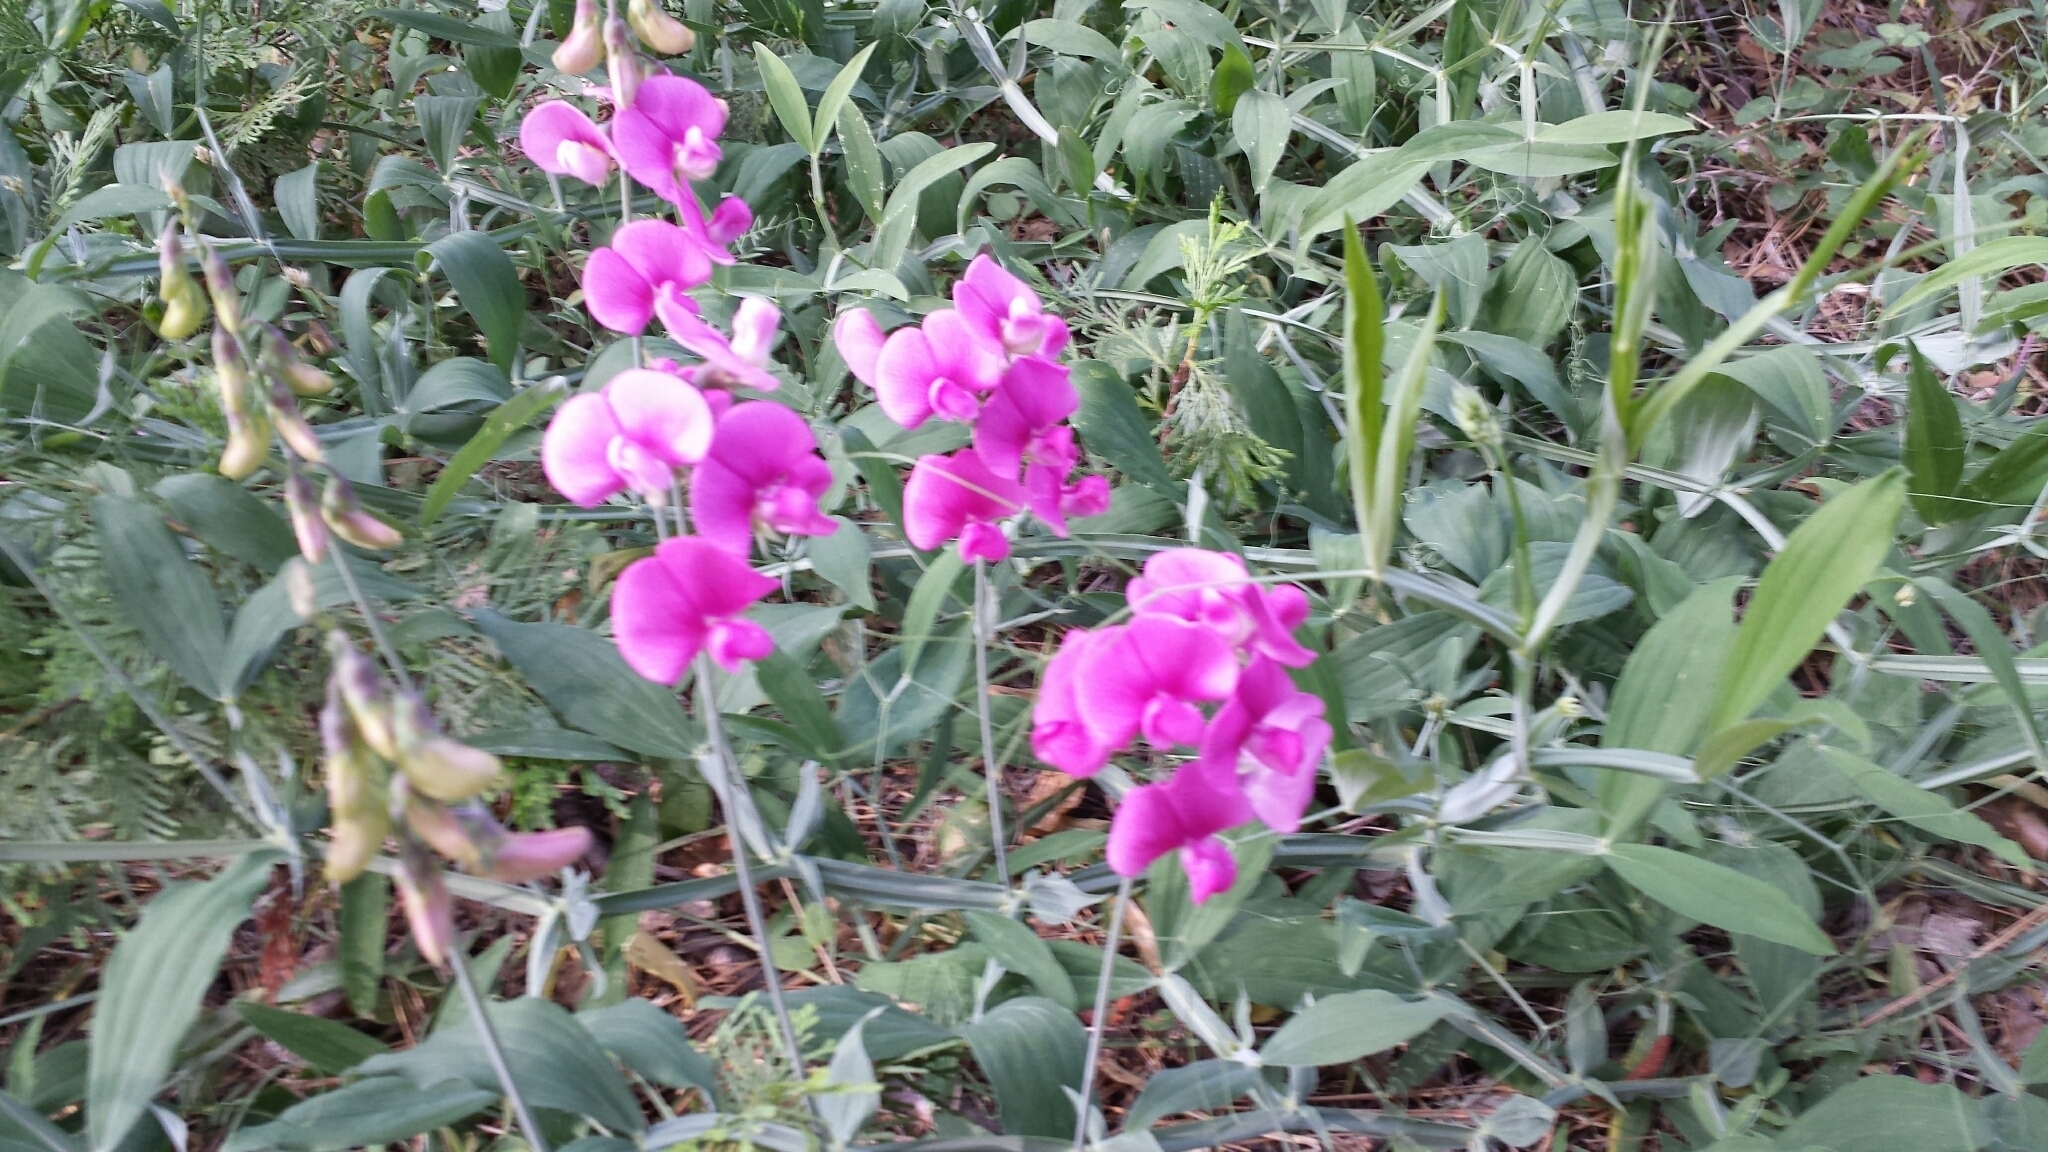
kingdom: Plantae
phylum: Tracheophyta
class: Magnoliopsida
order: Fabales
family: Fabaceae
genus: Lathyrus
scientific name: Lathyrus latifolius
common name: Perennial pea
